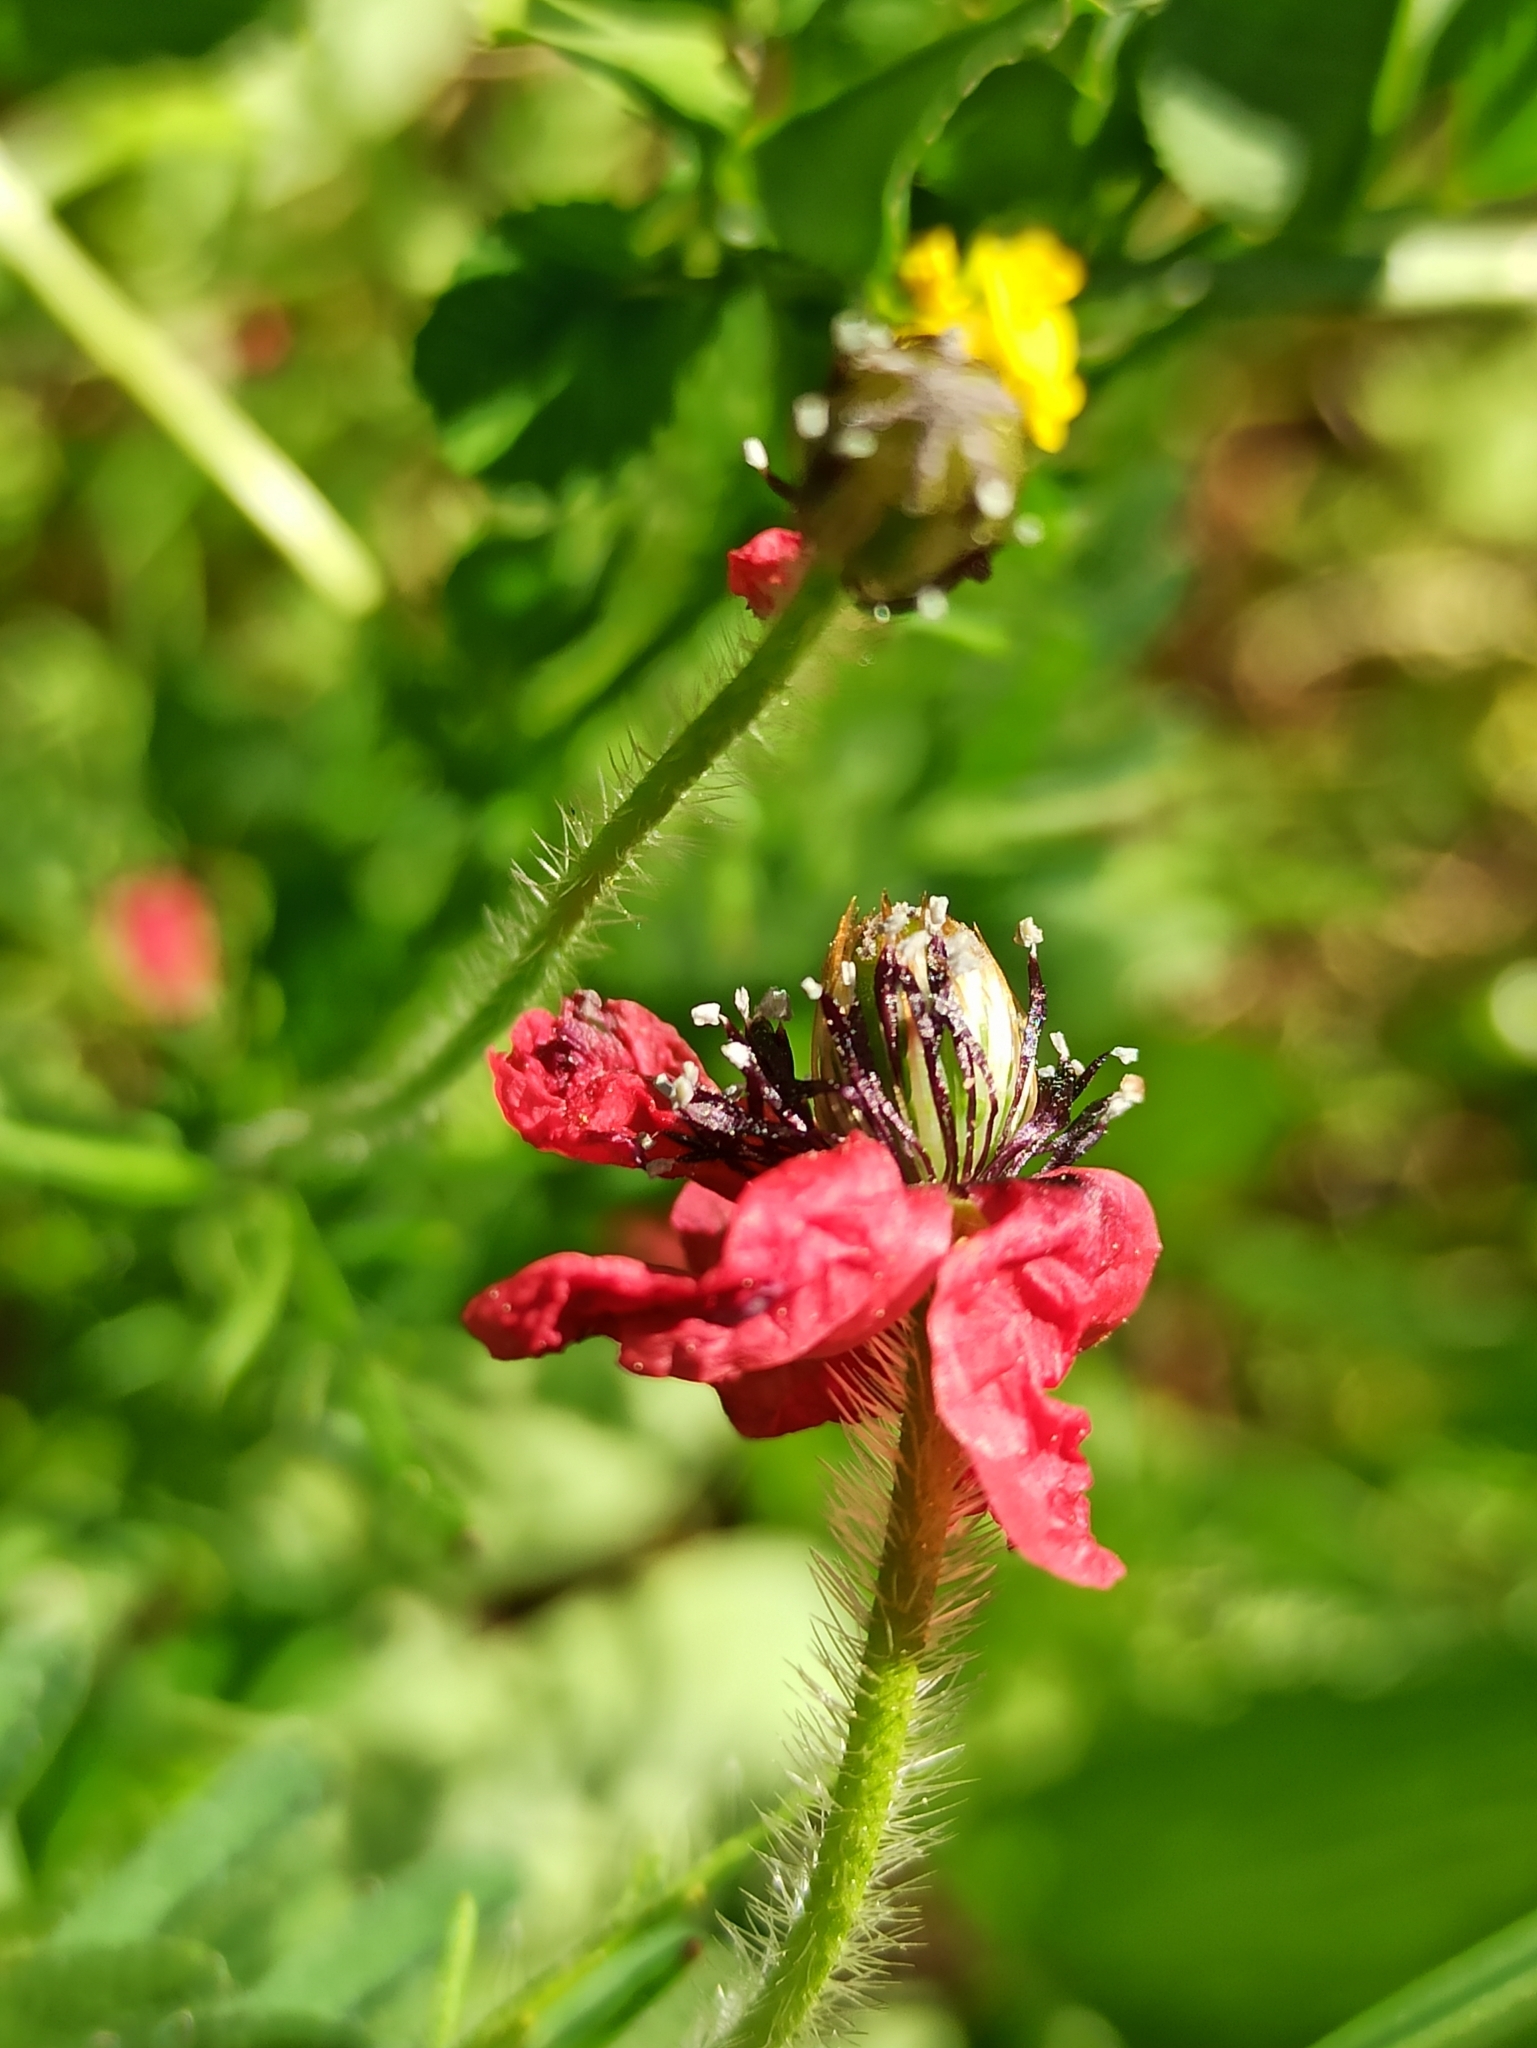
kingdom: Plantae
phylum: Tracheophyta
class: Magnoliopsida
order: Ranunculales
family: Papaveraceae
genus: Roemeria
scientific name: Roemeria hispida
